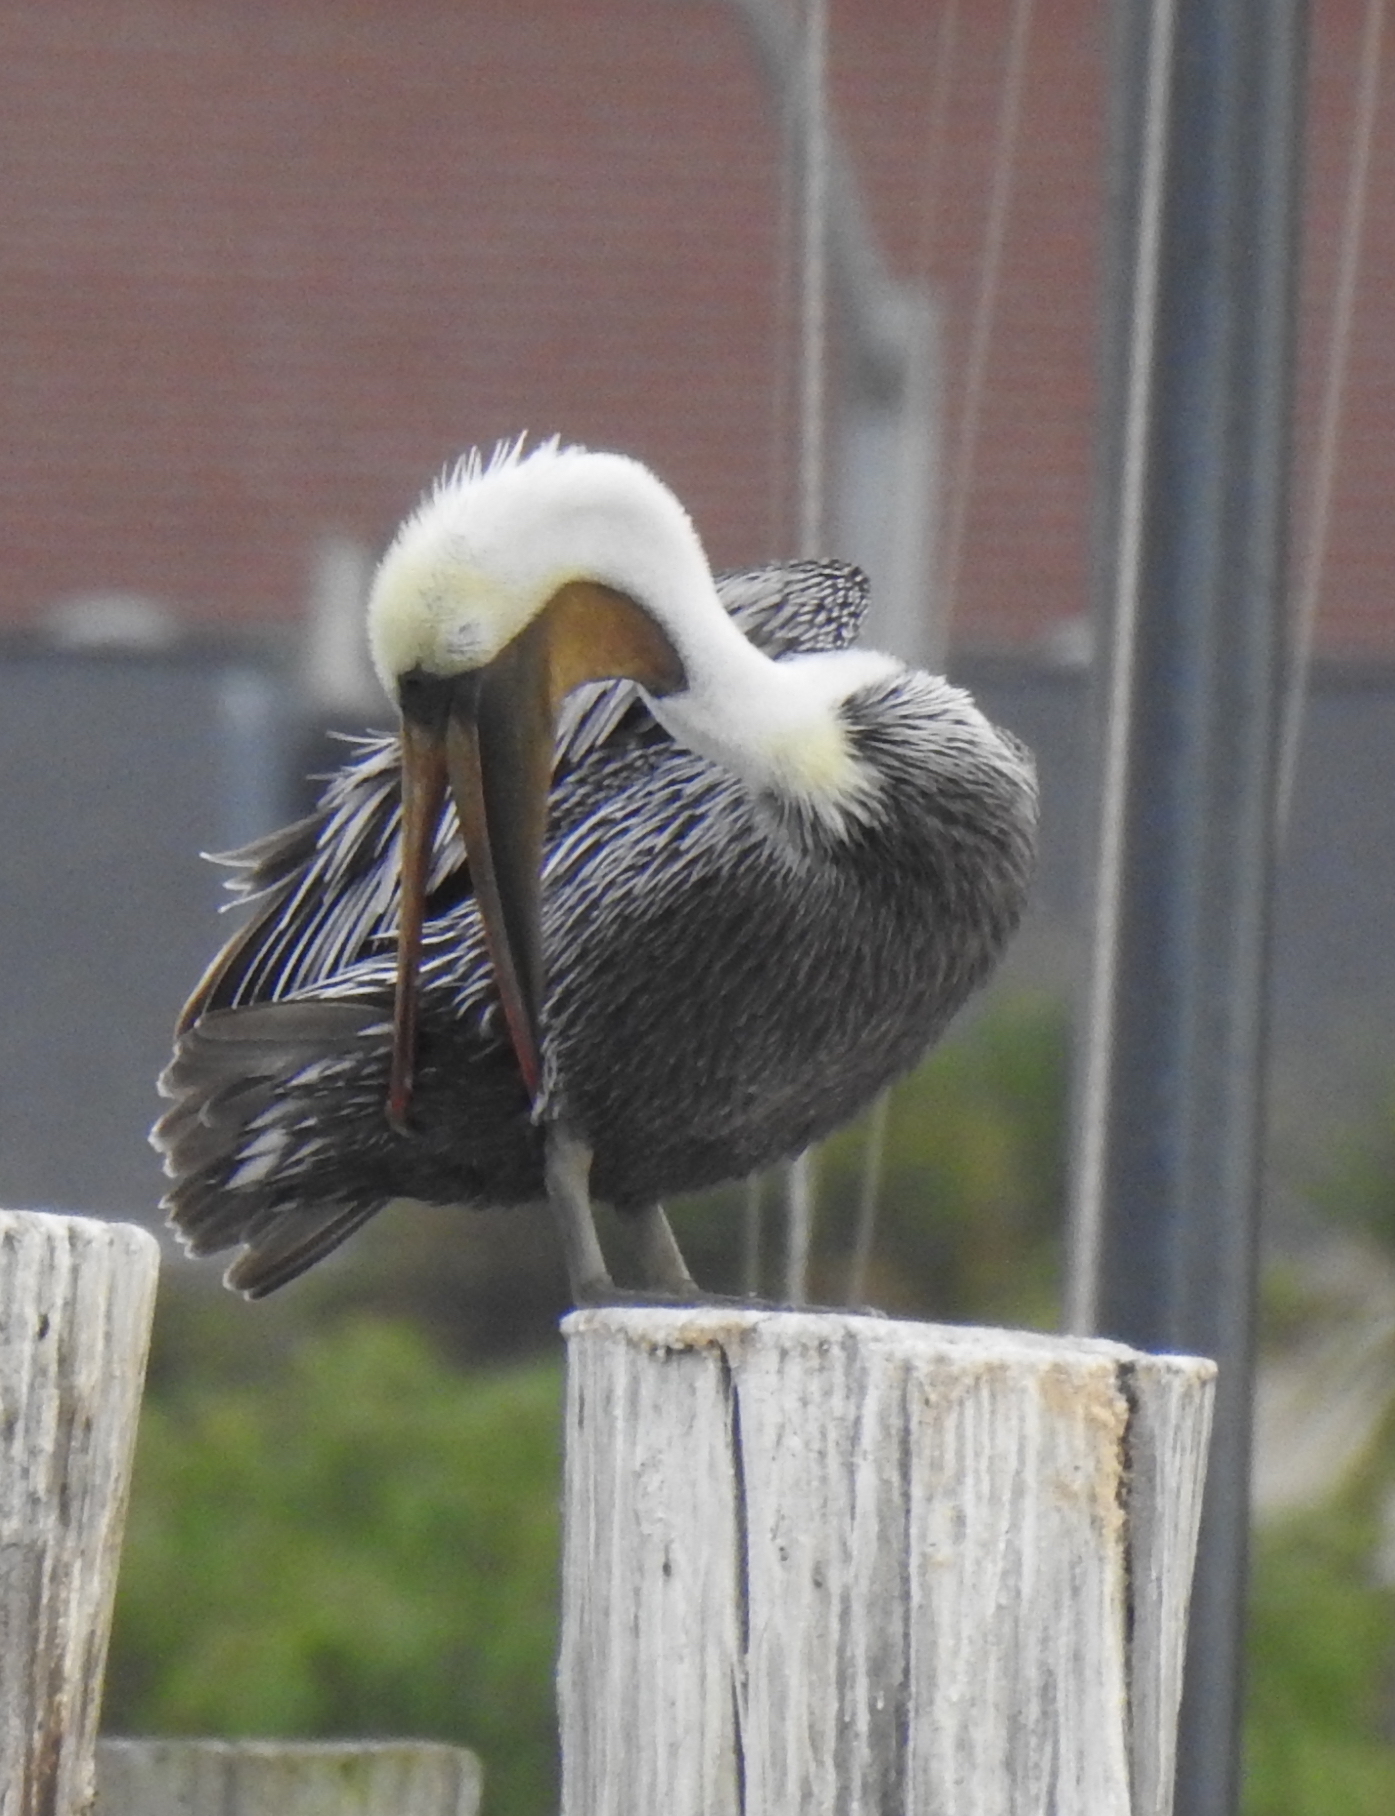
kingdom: Animalia
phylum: Chordata
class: Aves
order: Pelecaniformes
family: Pelecanidae
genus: Pelecanus
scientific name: Pelecanus occidentalis
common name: Brown pelican
